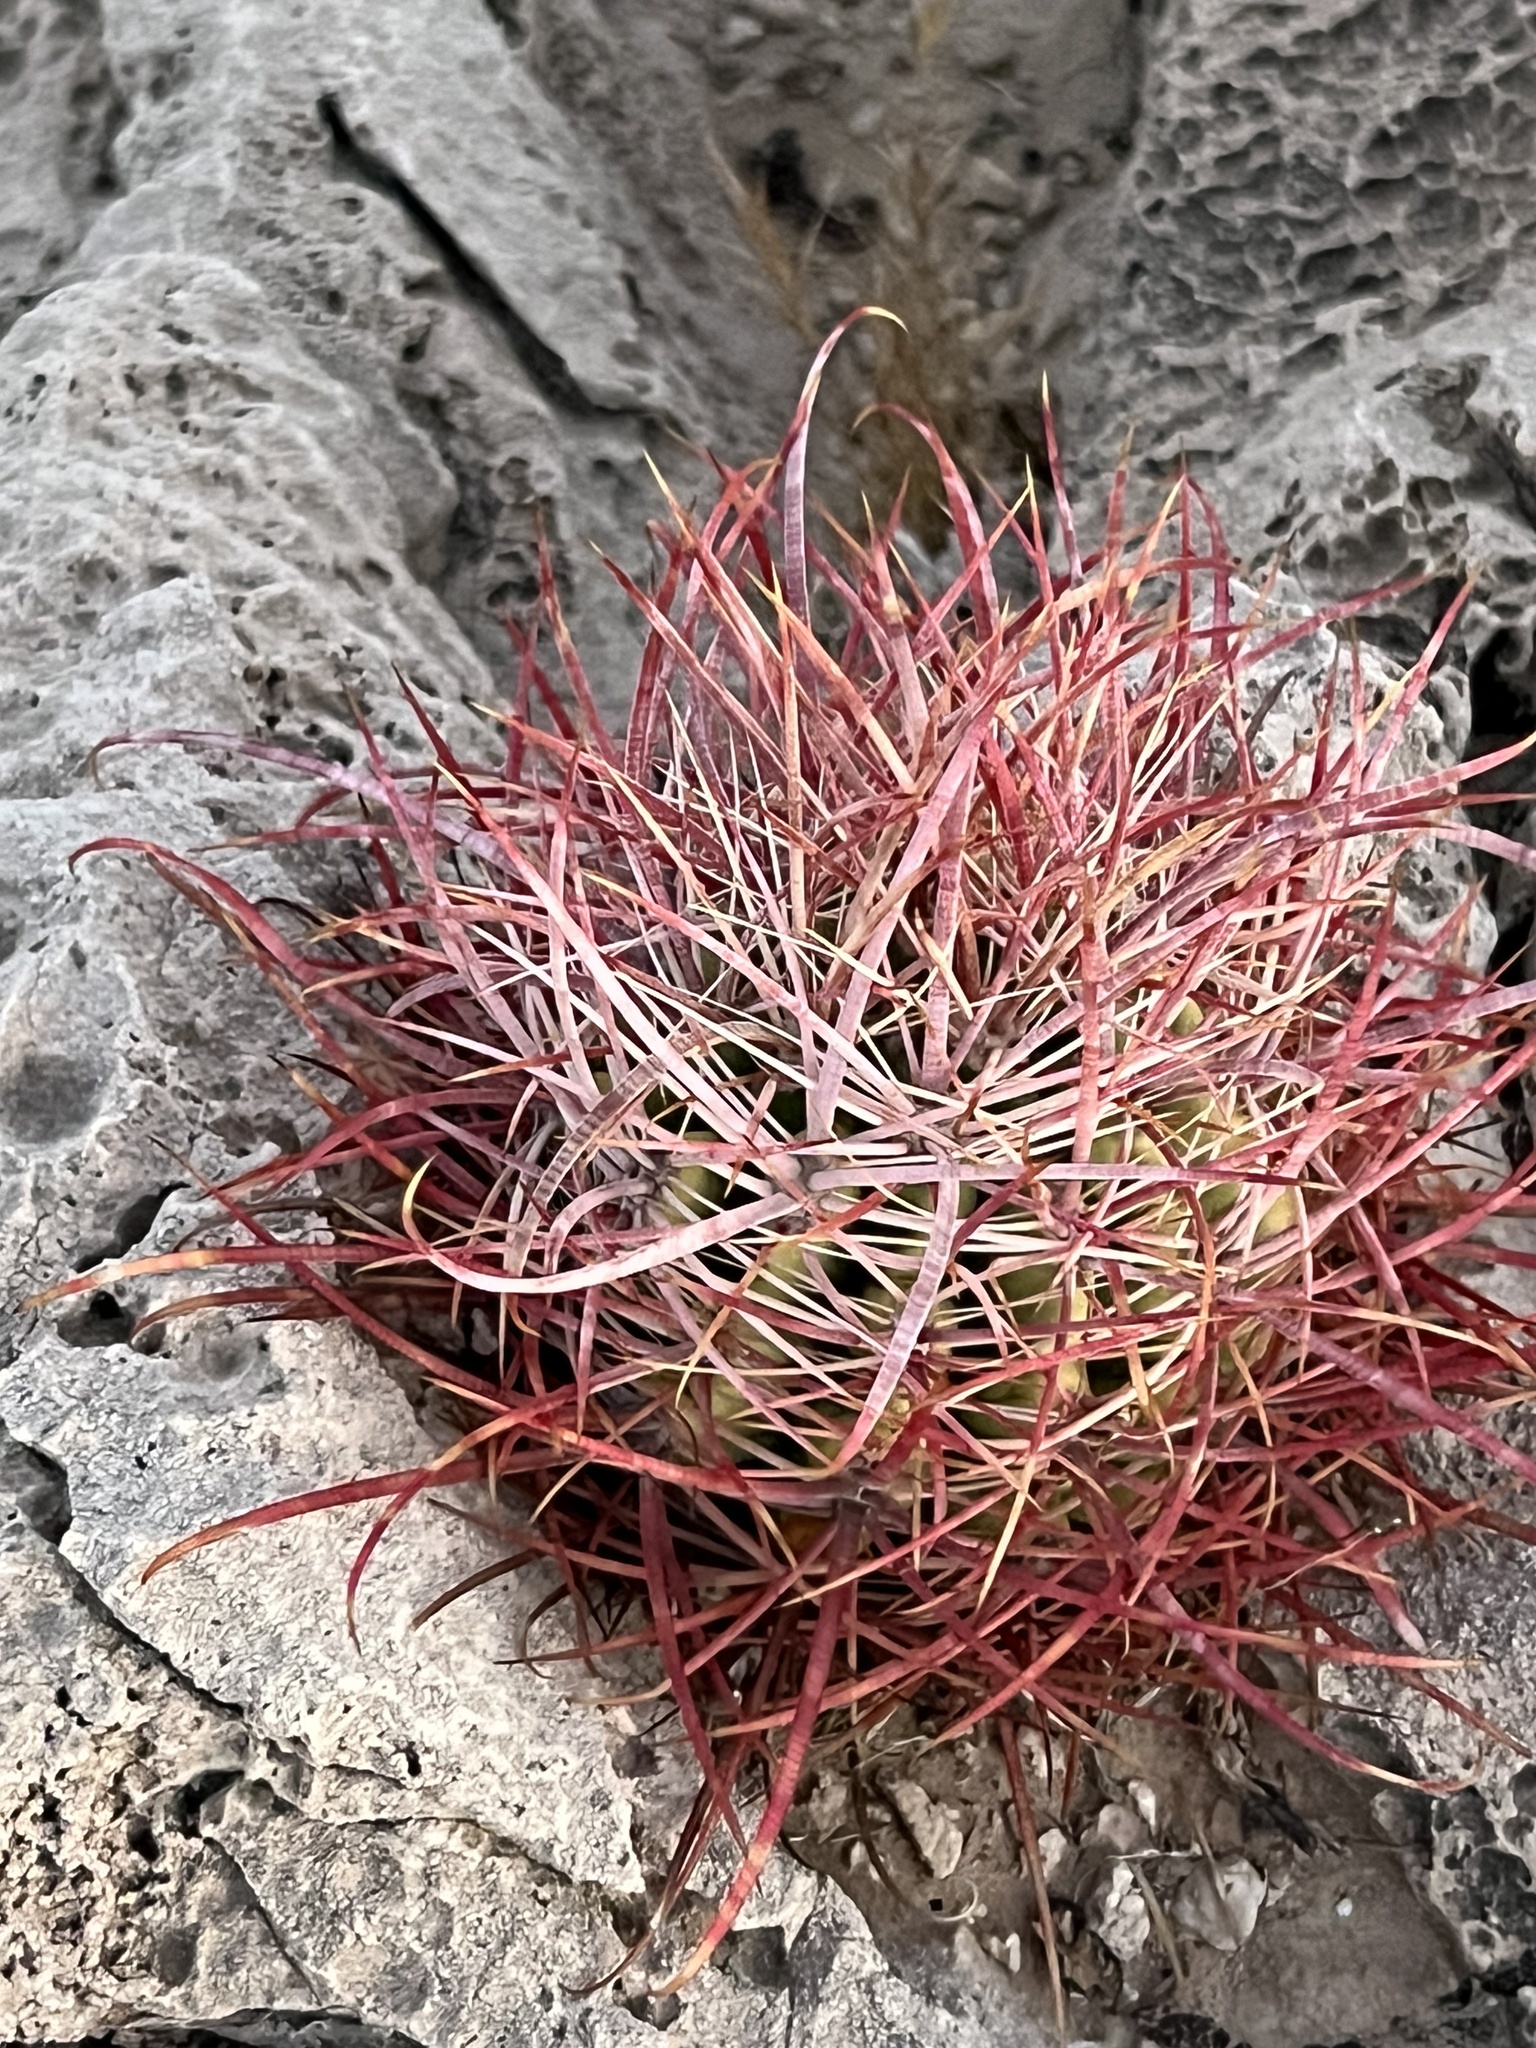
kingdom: Plantae
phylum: Tracheophyta
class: Magnoliopsida
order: Caryophyllales
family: Cactaceae
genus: Ferocactus
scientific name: Ferocactus cylindraceus
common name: California barrel cactus
